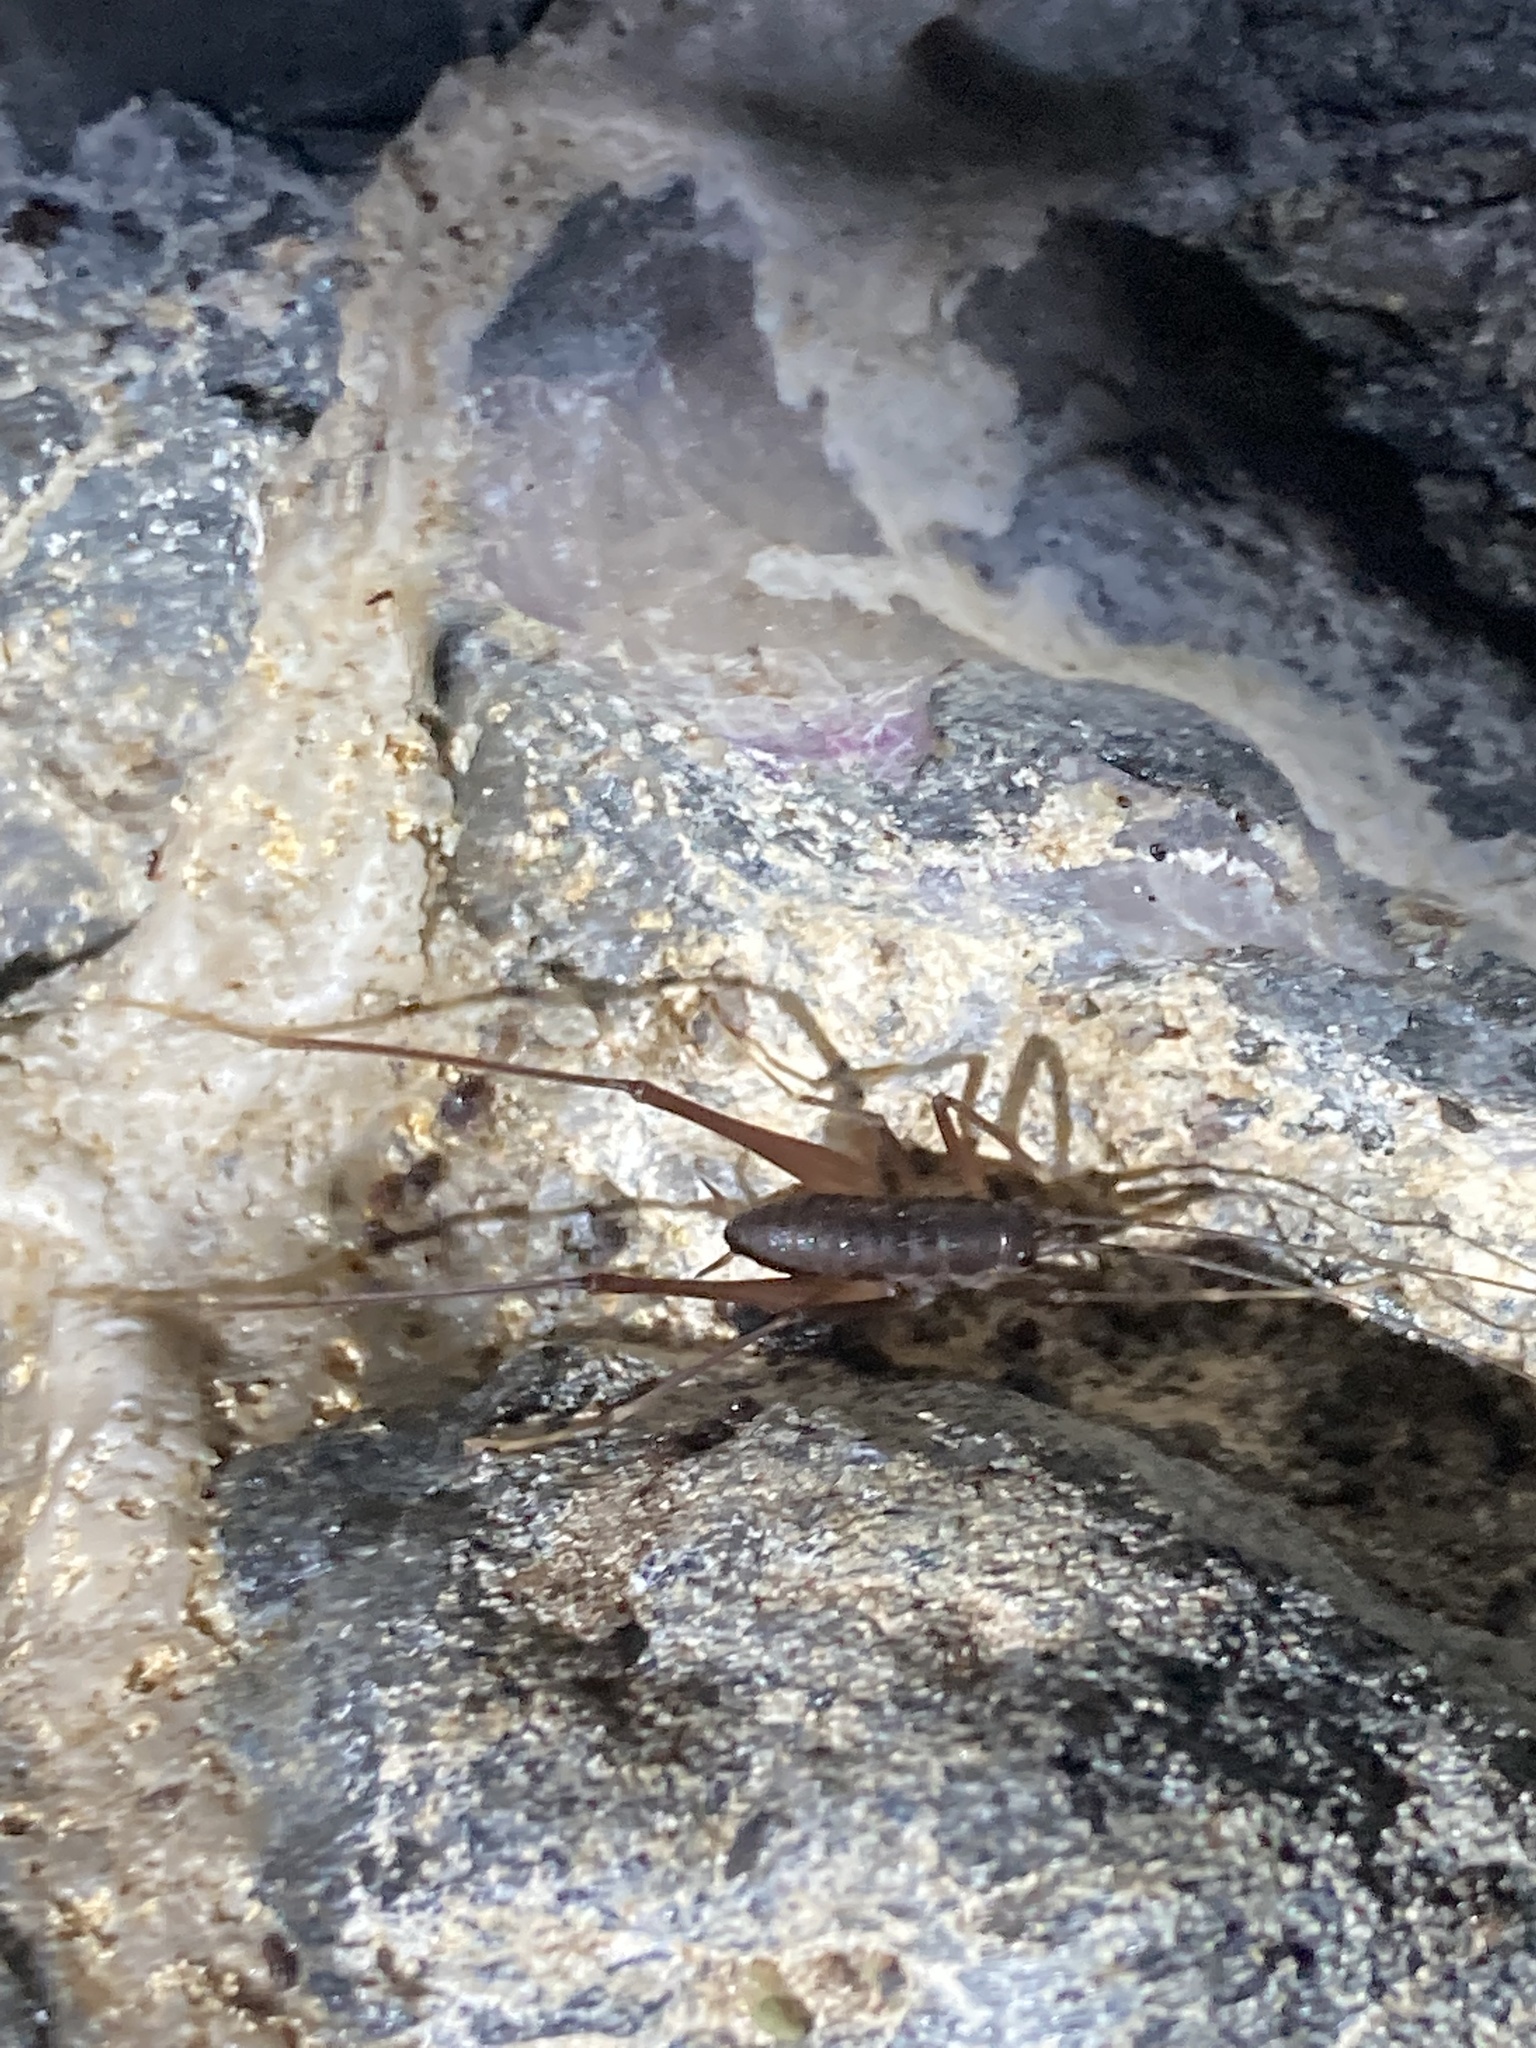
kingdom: Animalia
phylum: Arthropoda
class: Insecta
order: Orthoptera
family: Rhaphidophoridae
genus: Tropidischia
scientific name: Tropidischia xanthostoma
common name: Square-legged camel cricket
